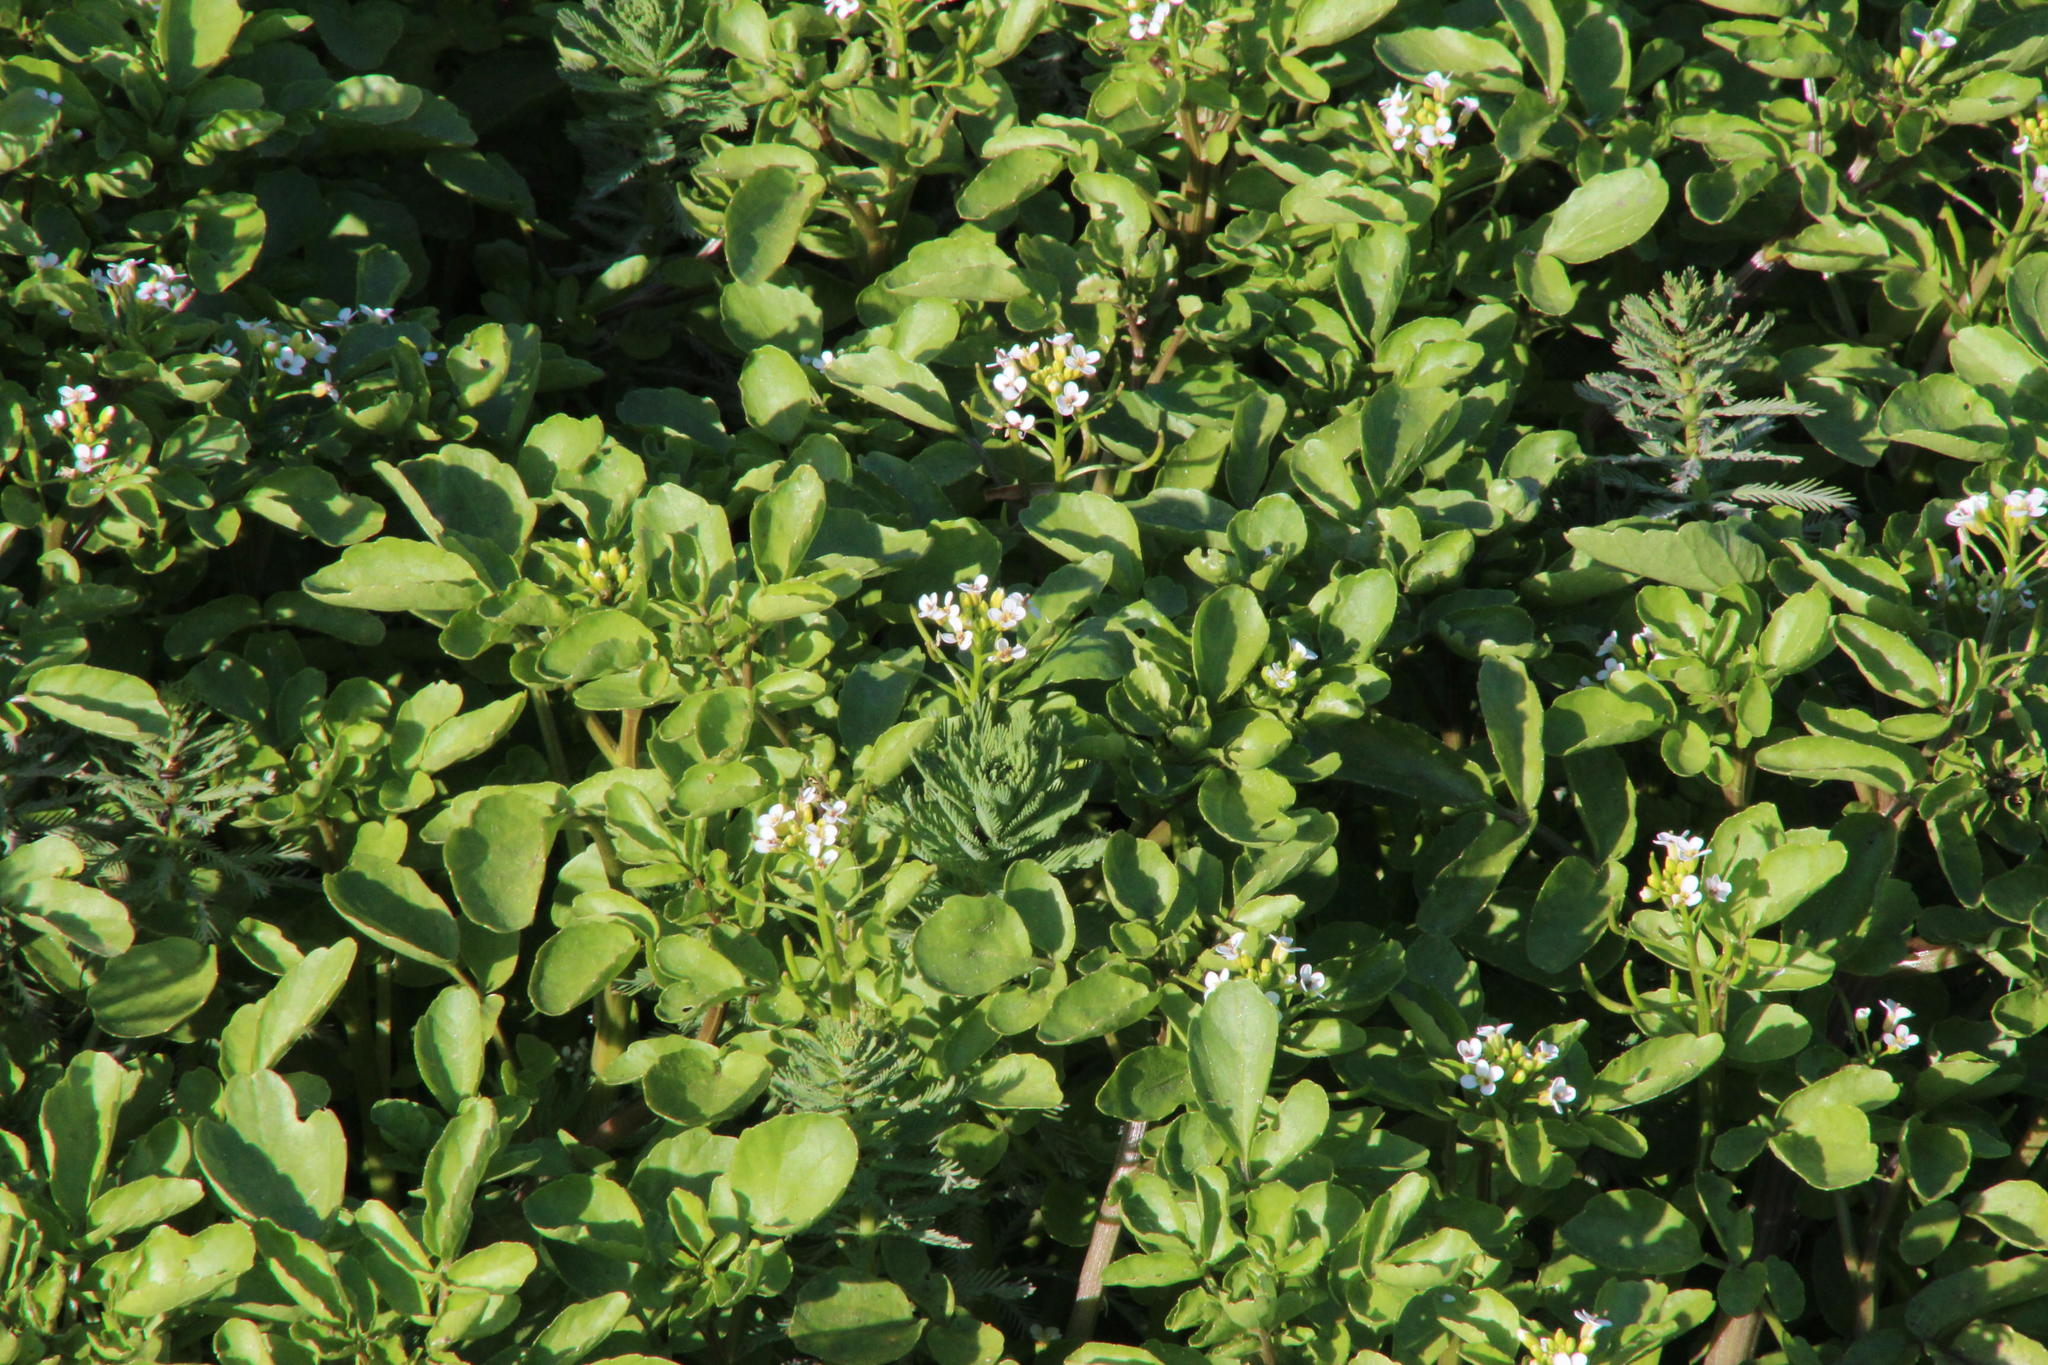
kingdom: Plantae
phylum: Tracheophyta
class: Magnoliopsida
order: Brassicales
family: Brassicaceae
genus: Nasturtium
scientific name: Nasturtium officinale
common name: Watercress
